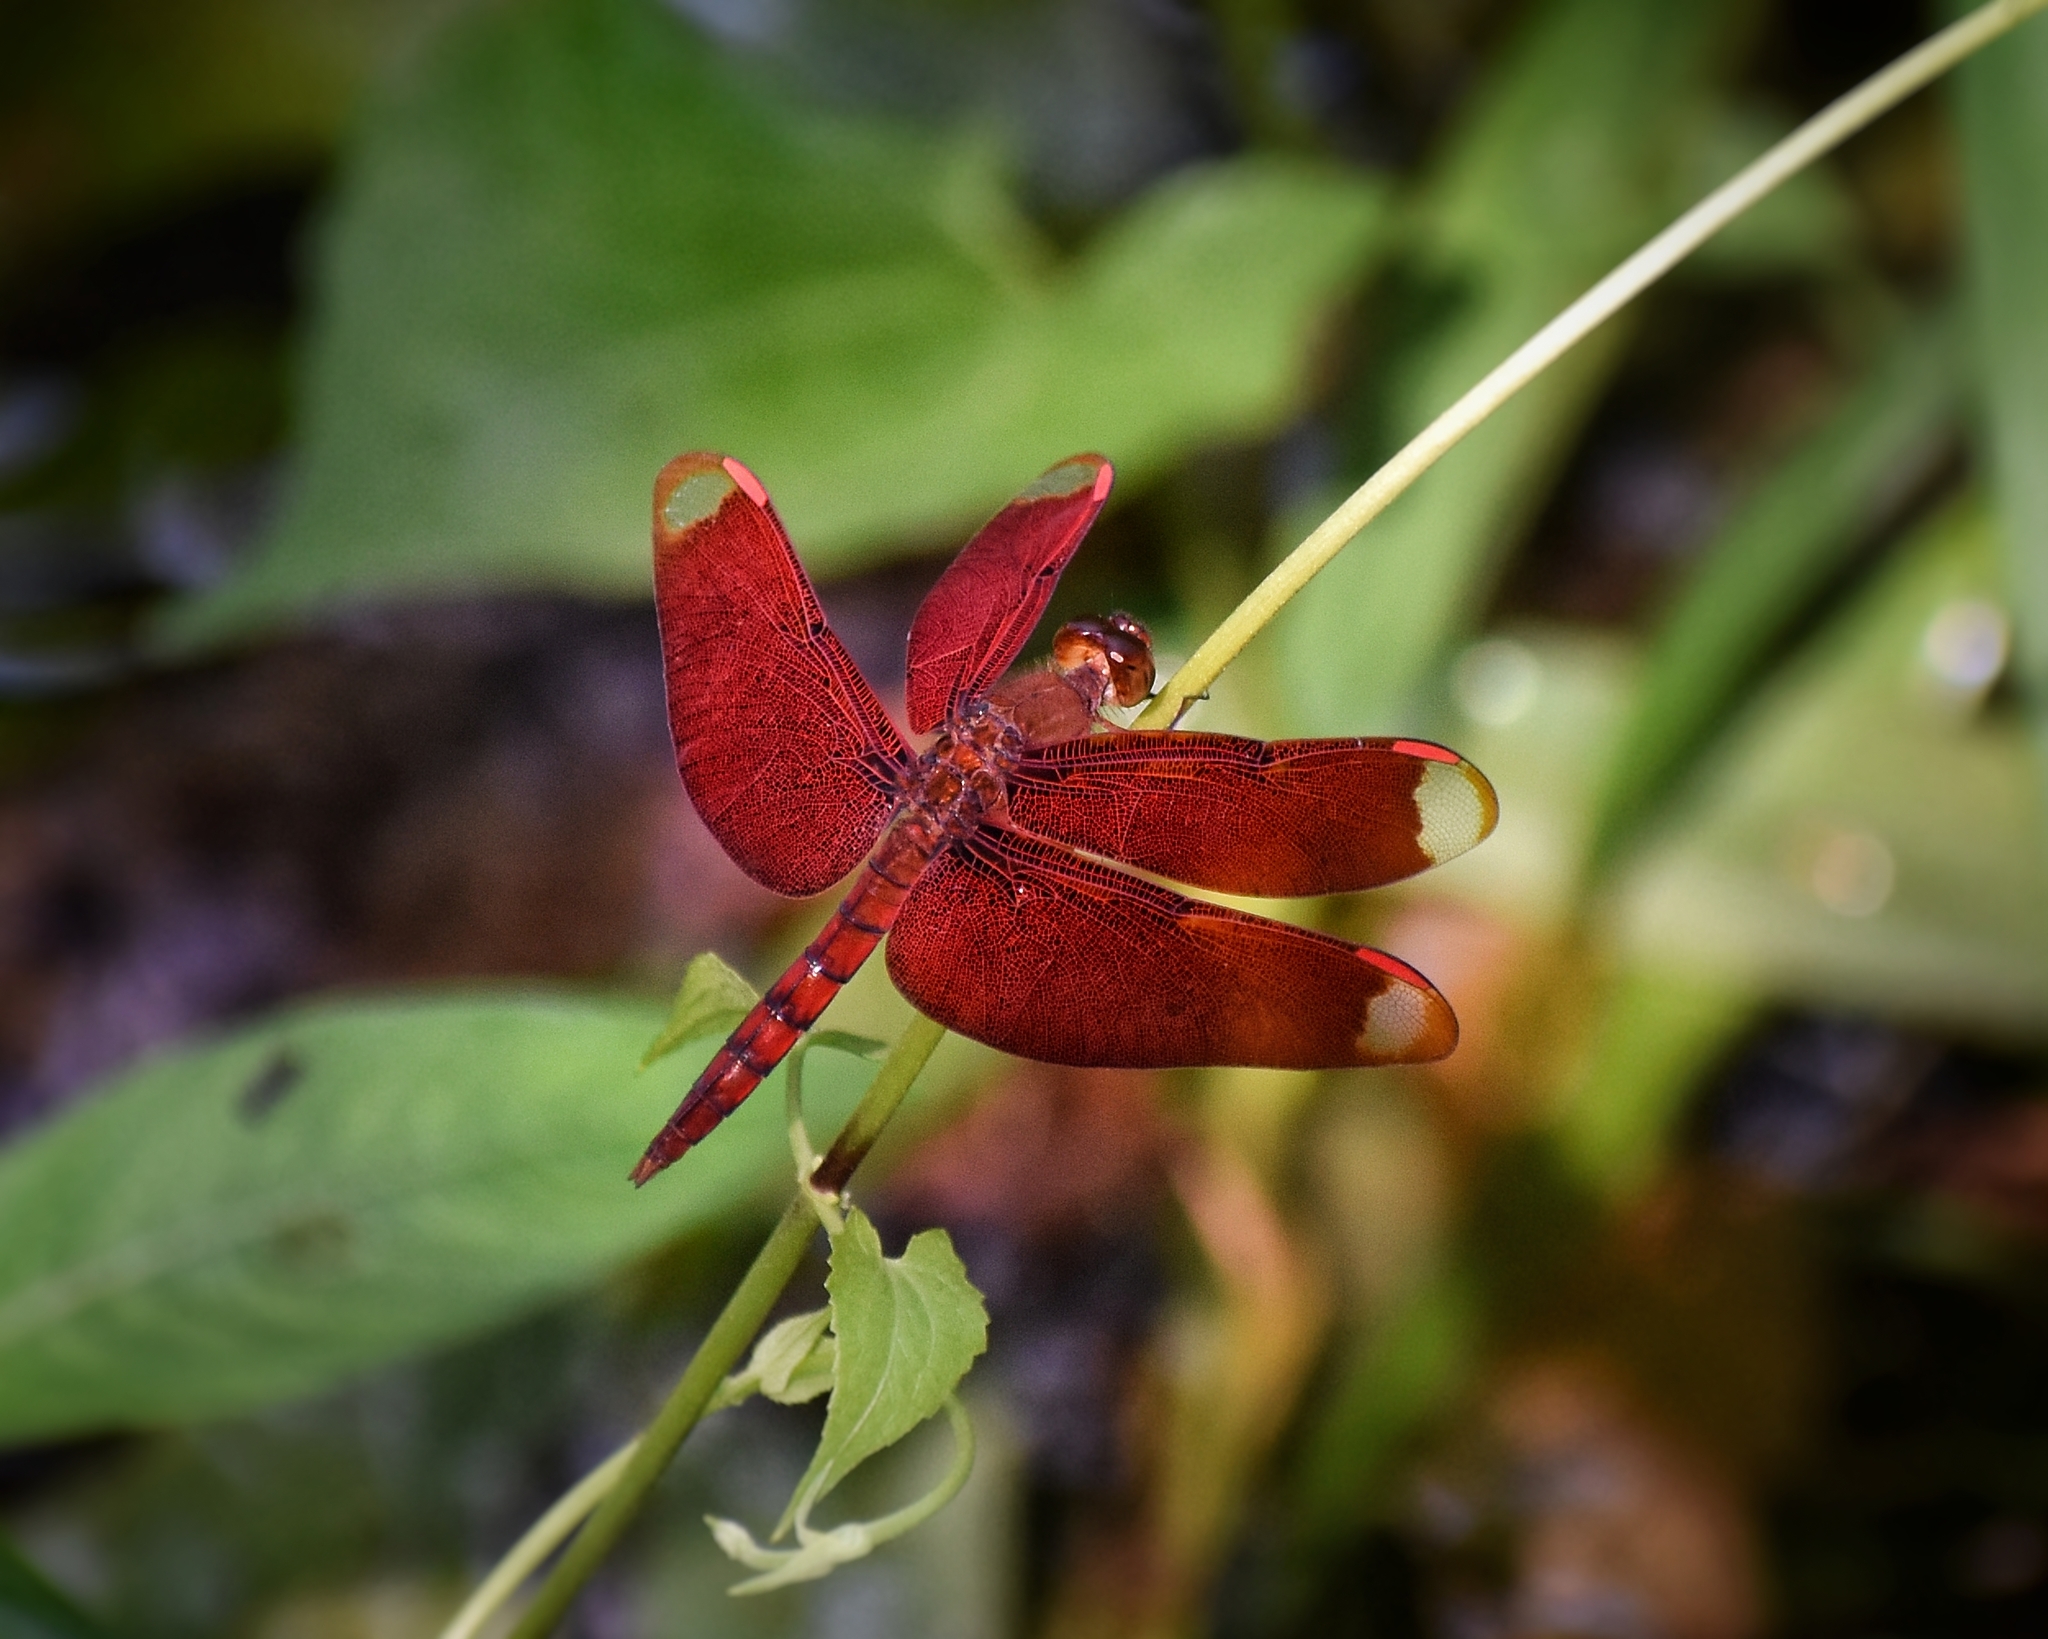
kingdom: Animalia
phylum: Arthropoda
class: Insecta
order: Odonata
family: Libellulidae
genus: Neurothemis
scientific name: Neurothemis fulvia
